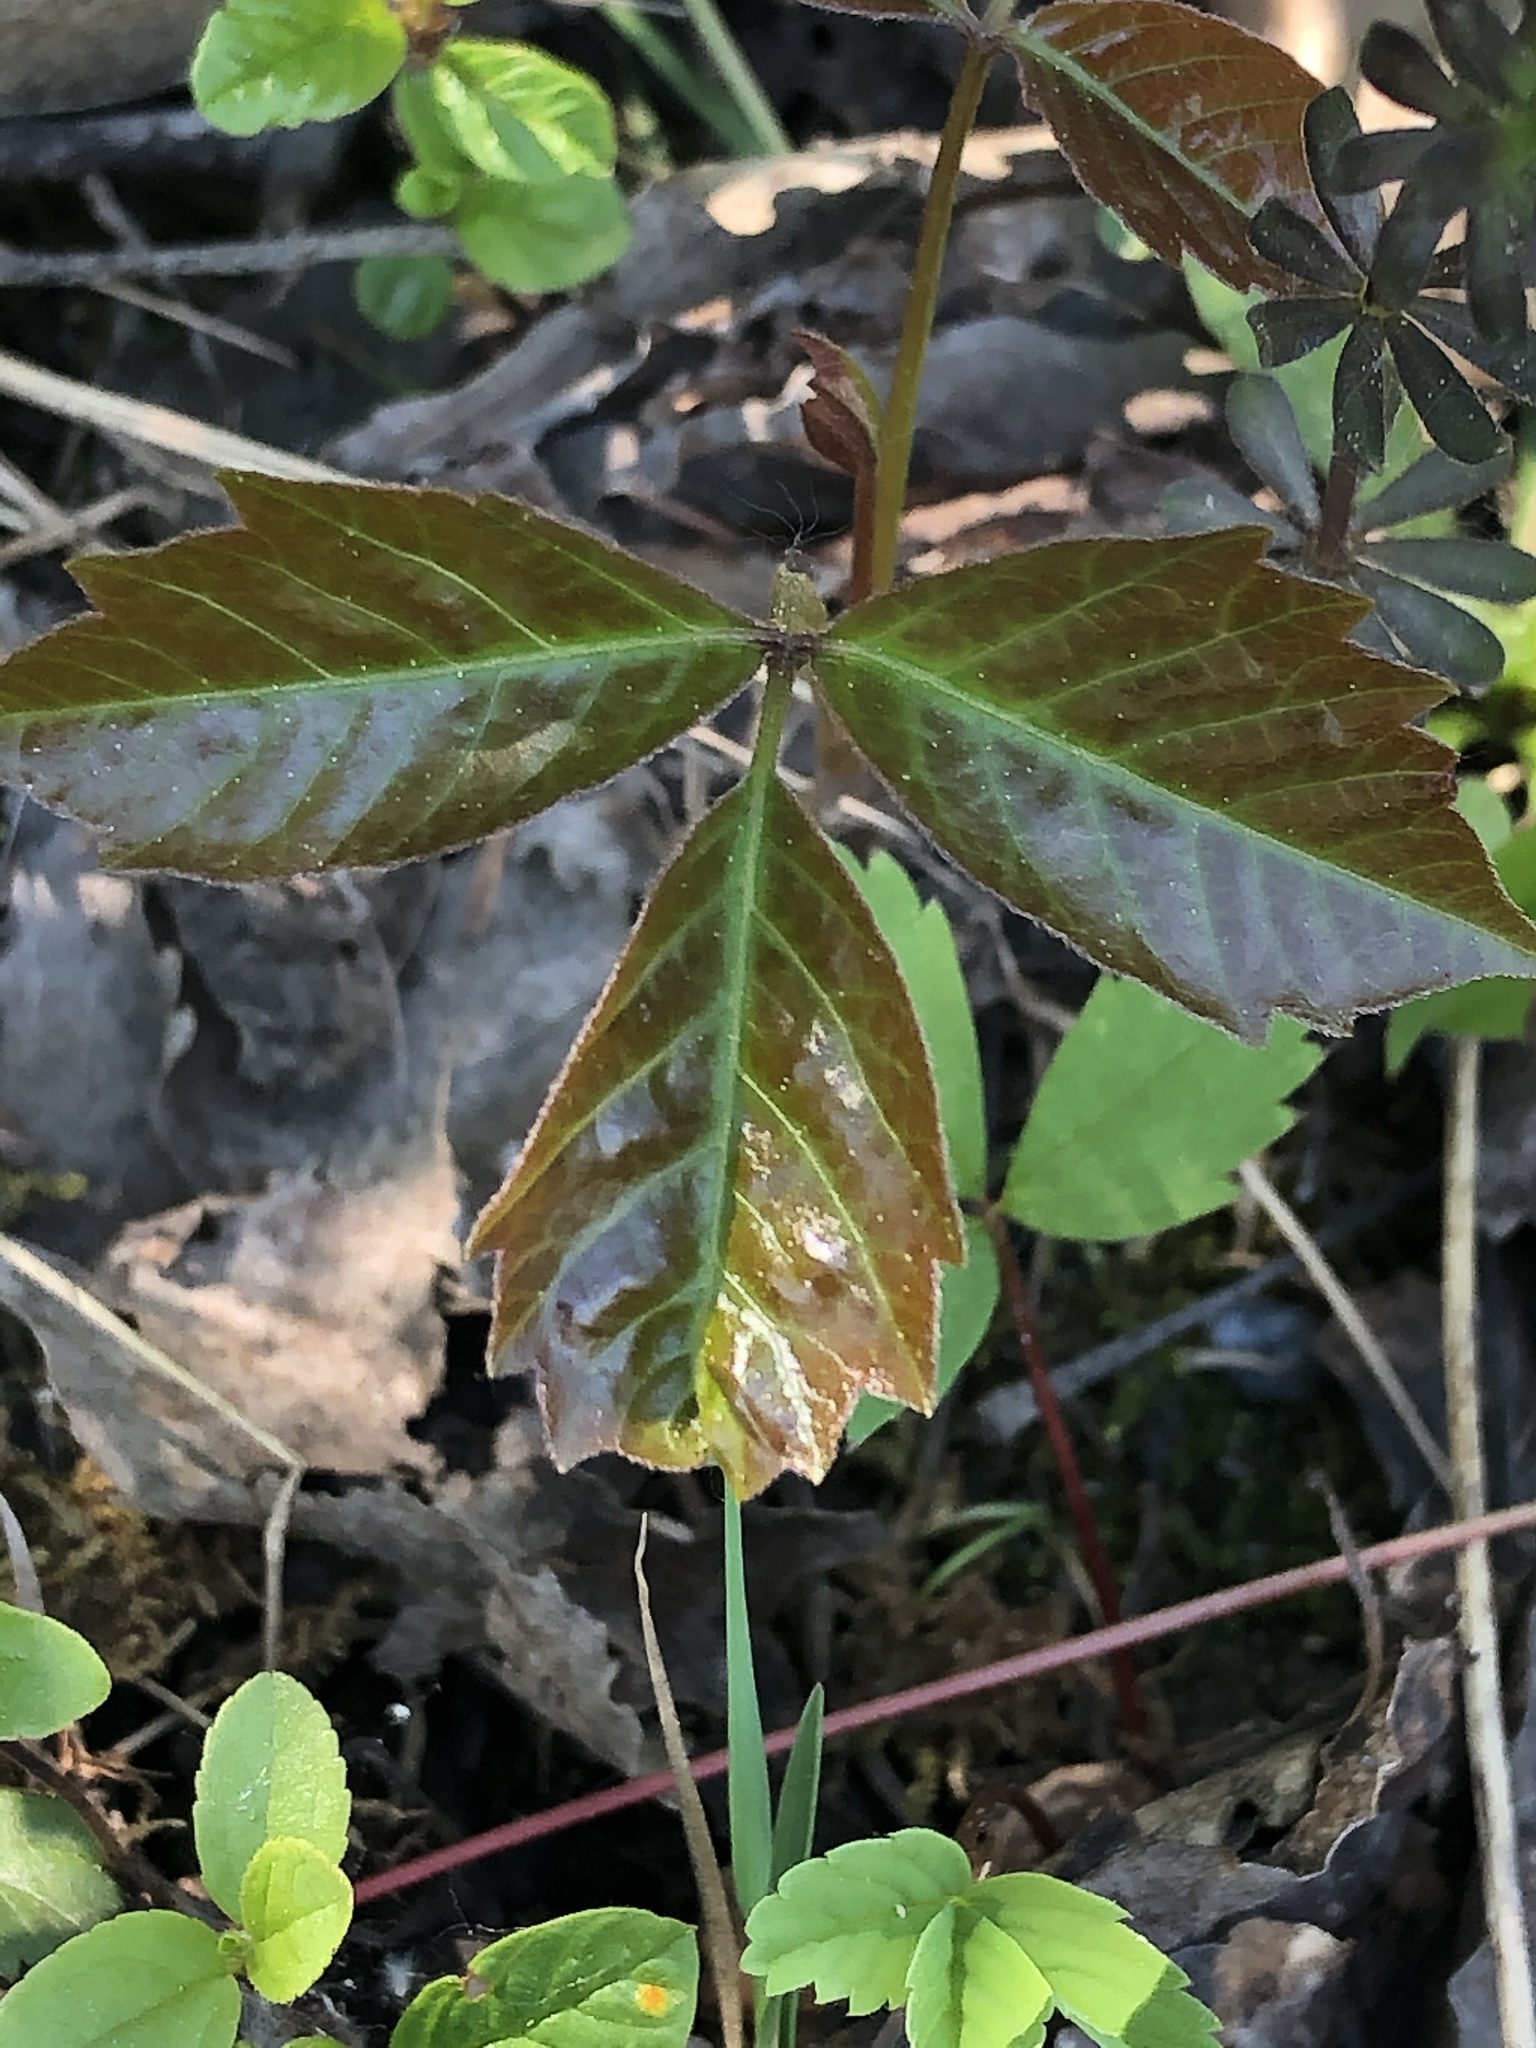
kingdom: Plantae
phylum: Tracheophyta
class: Magnoliopsida
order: Sapindales
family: Anacardiaceae
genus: Toxicodendron
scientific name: Toxicodendron radicans
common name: Poison ivy
